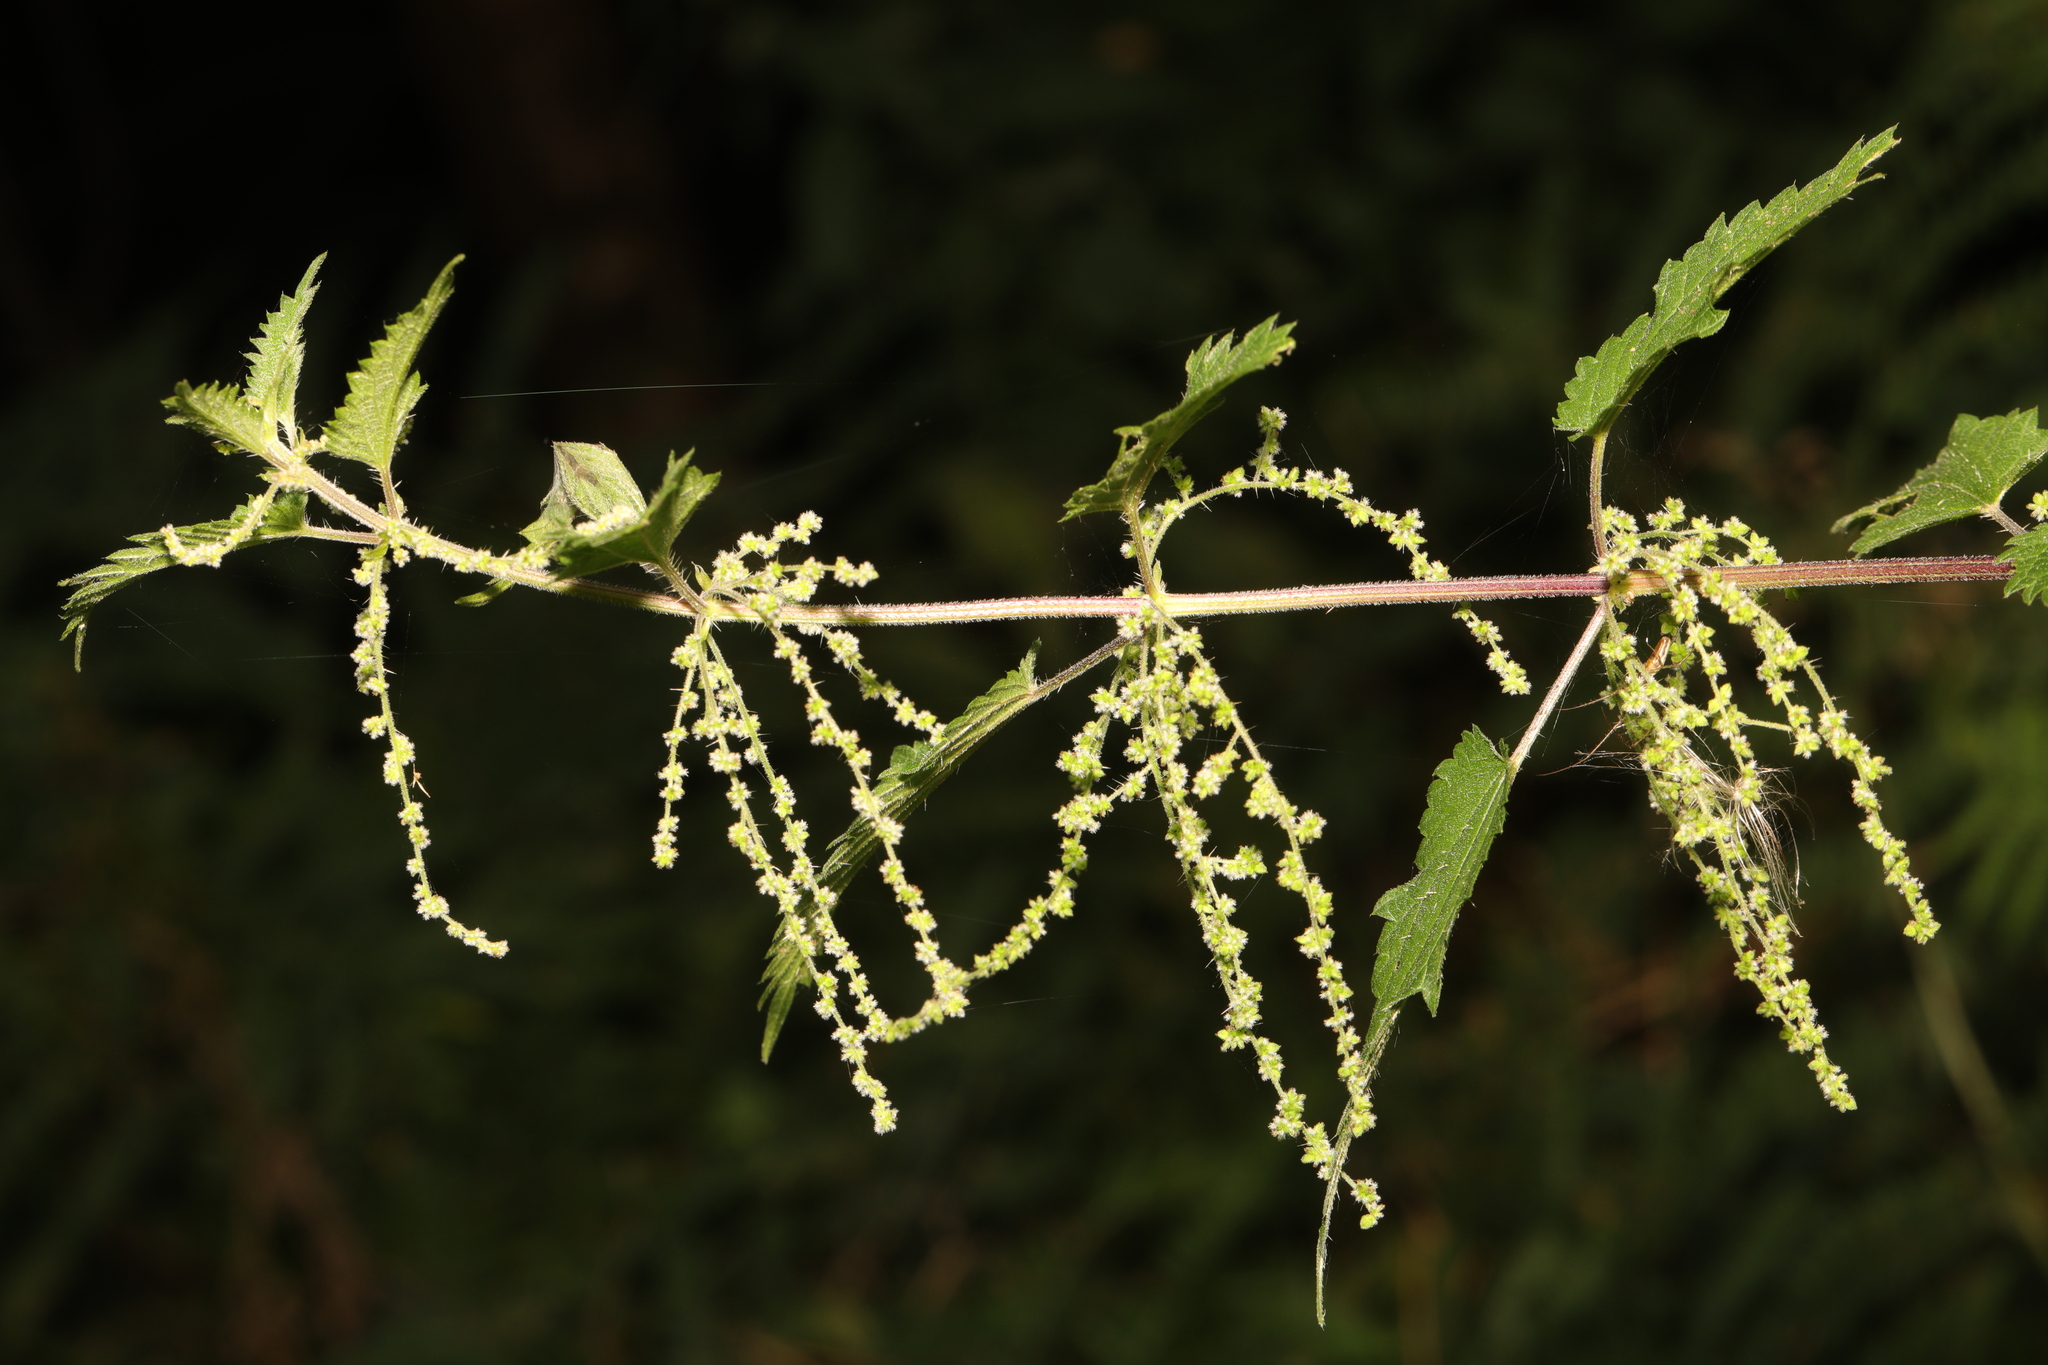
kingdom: Plantae
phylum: Tracheophyta
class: Magnoliopsida
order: Rosales
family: Urticaceae
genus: Urtica
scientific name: Urtica dioica
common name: Common nettle
